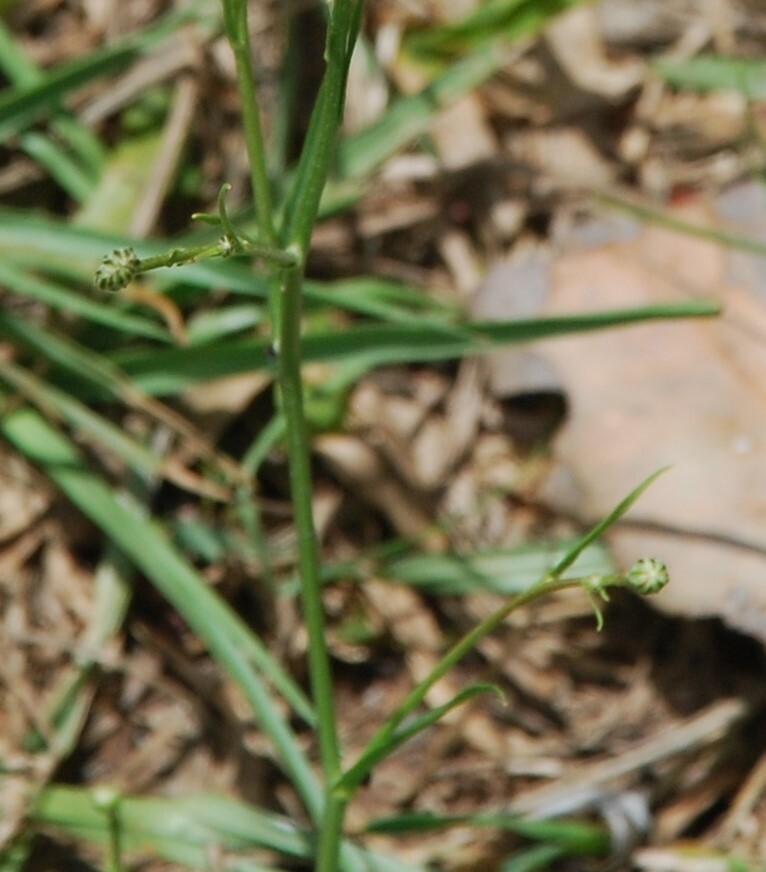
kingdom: Plantae
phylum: Tracheophyta
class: Magnoliopsida
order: Asterales
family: Asteraceae
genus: Hypochaeris
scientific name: Hypochaeris albiflora
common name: White flatweed
